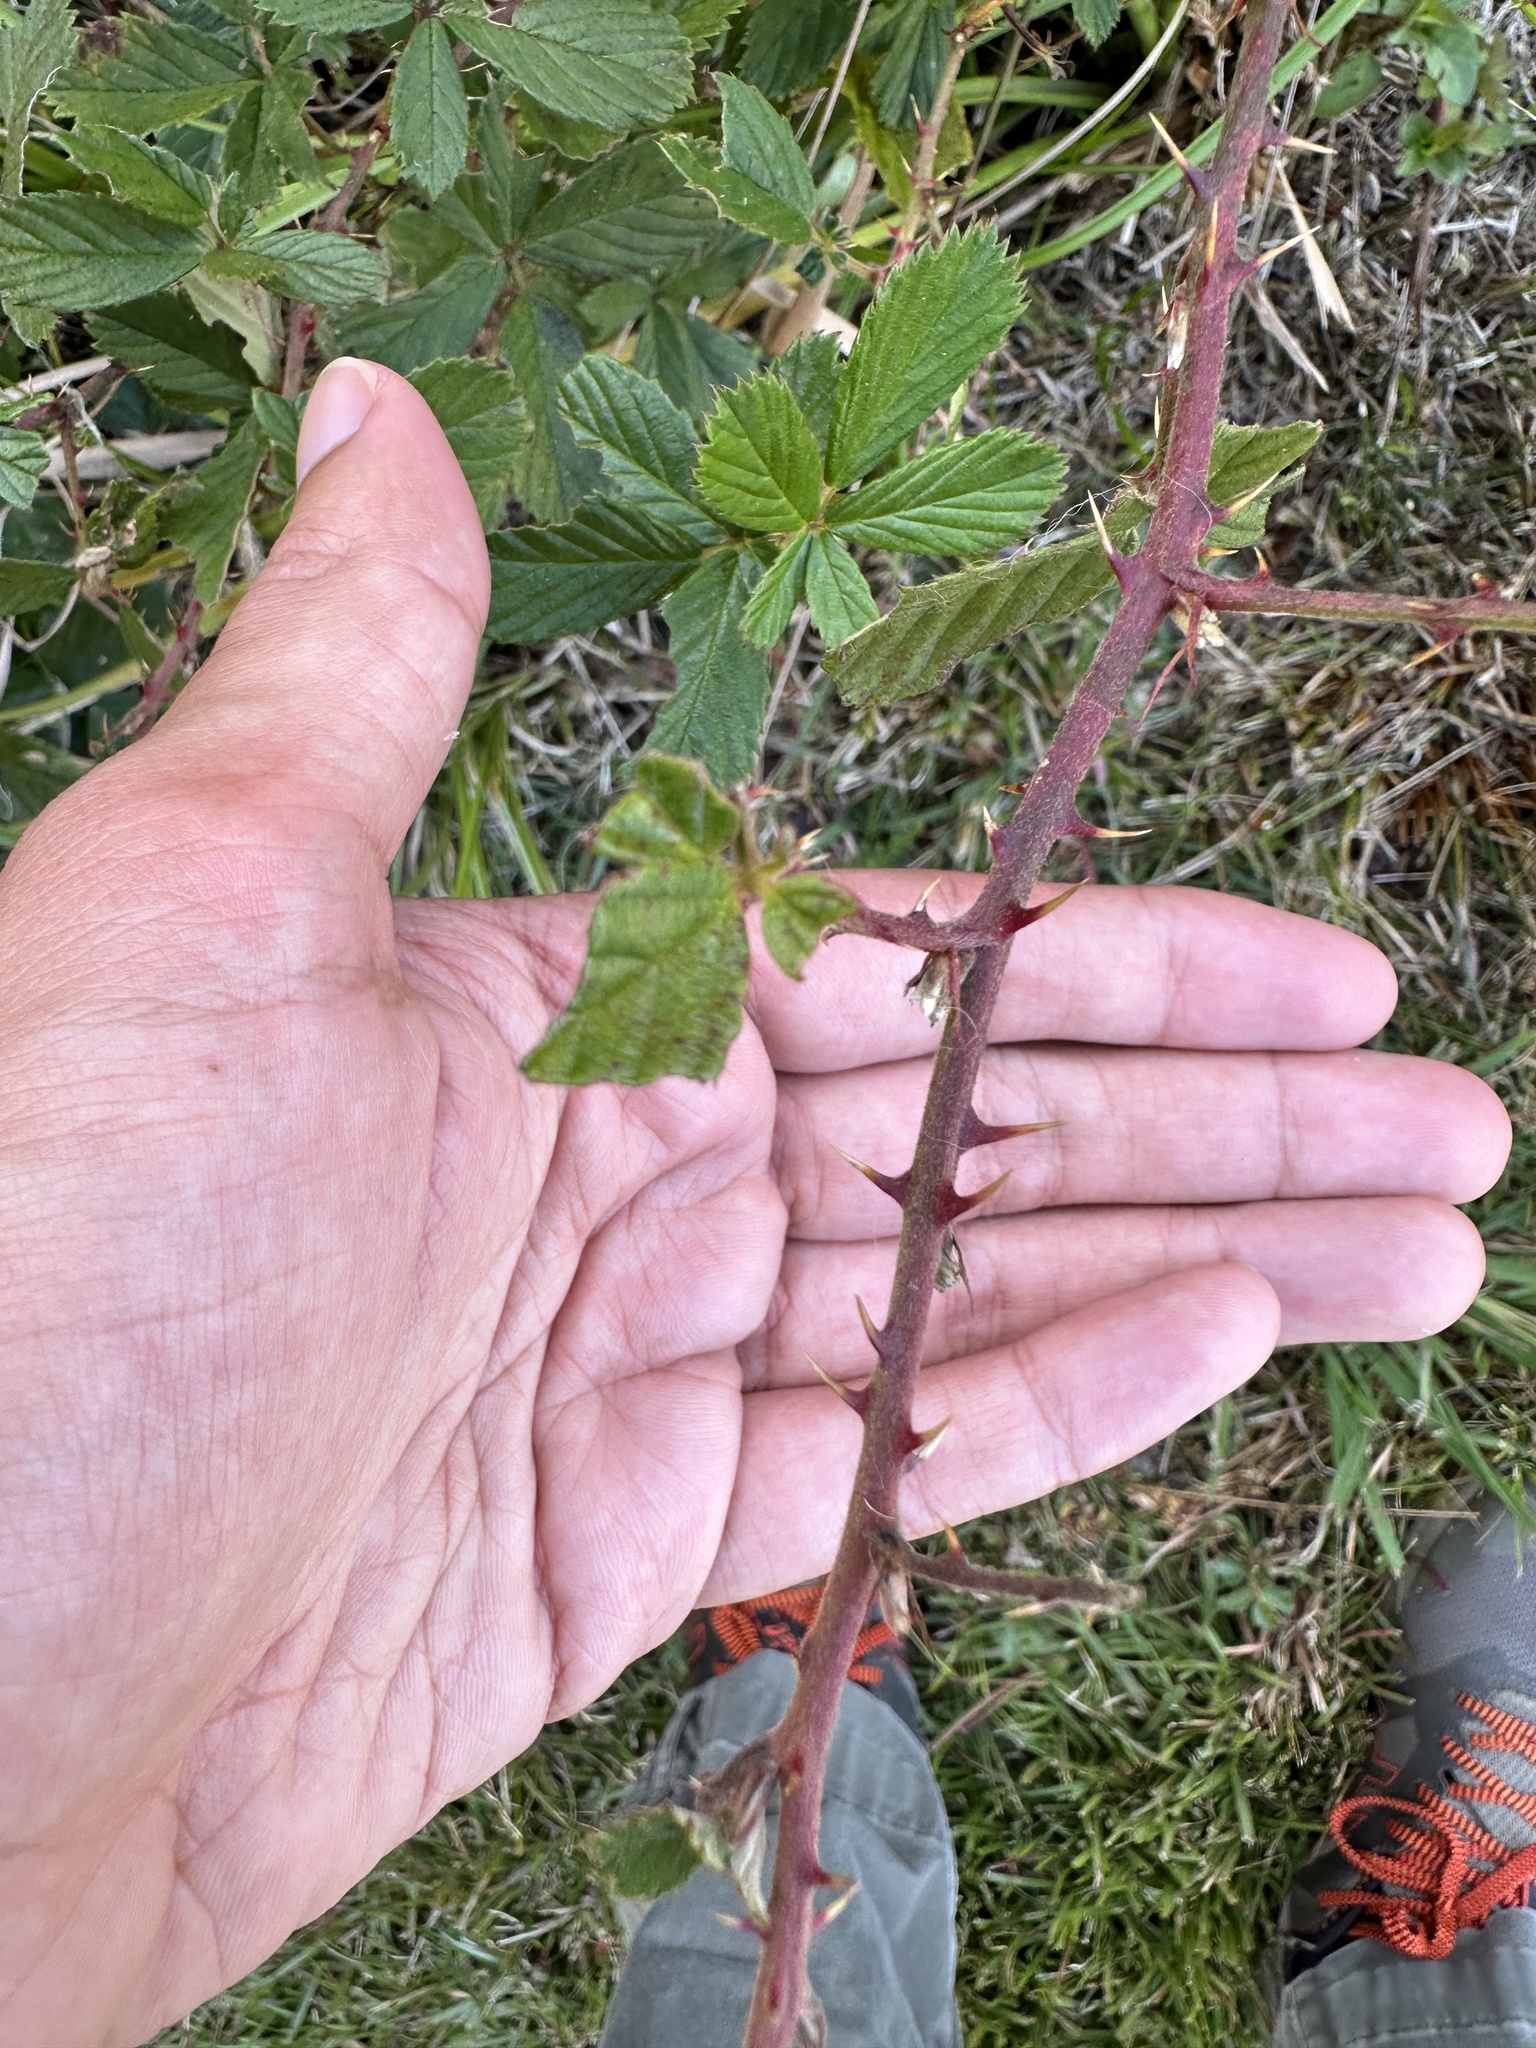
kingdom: Plantae
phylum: Tracheophyta
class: Magnoliopsida
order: Rosales
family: Rosaceae
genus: Rubus
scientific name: Rubus cuneifolius
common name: American bramble
